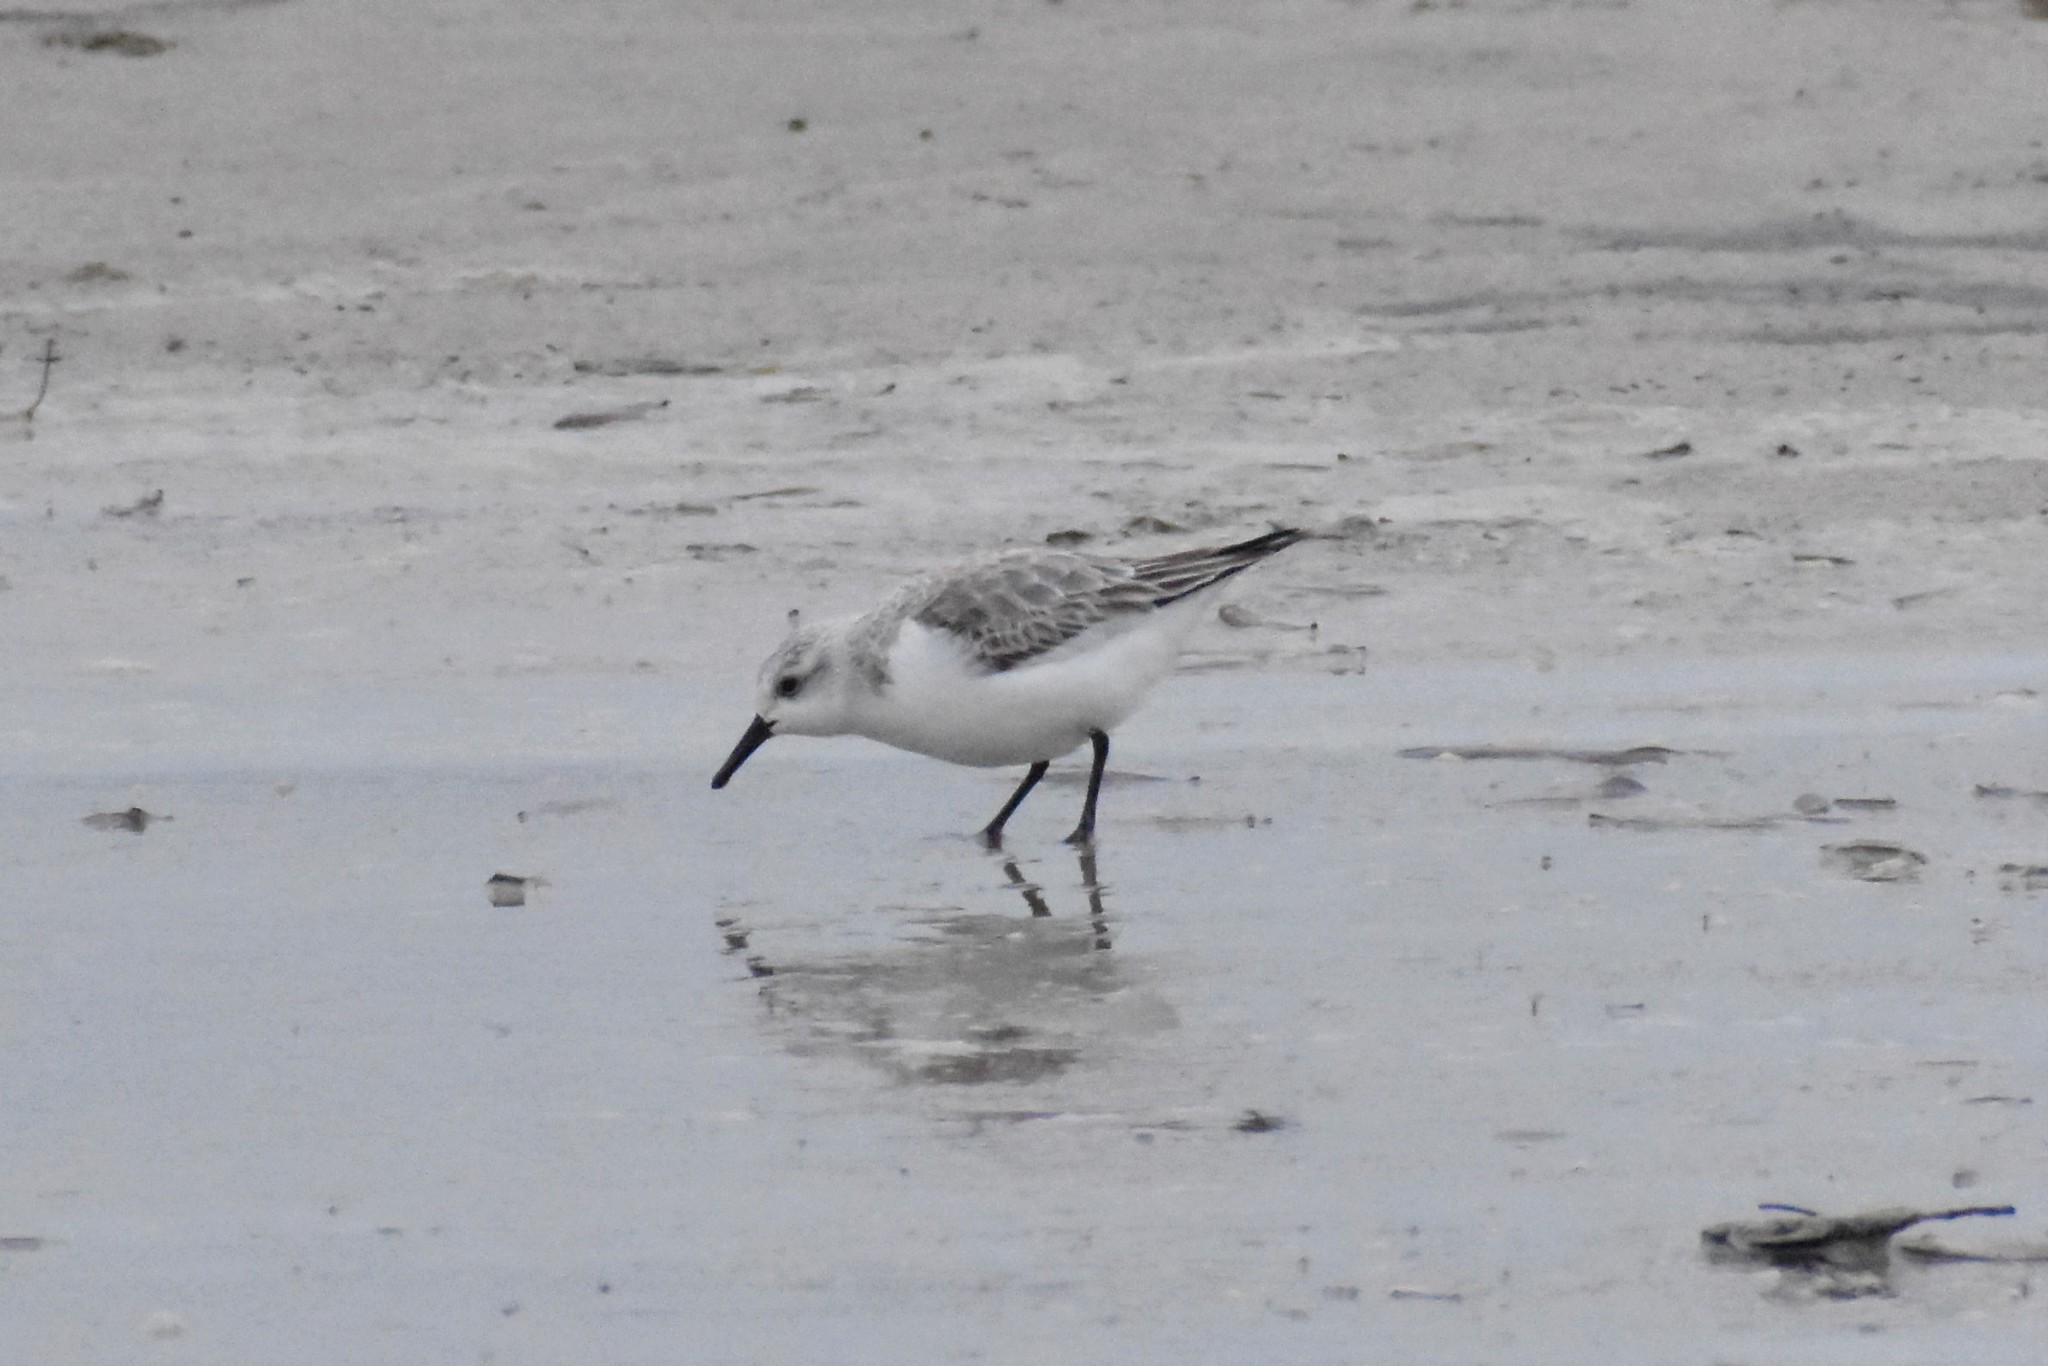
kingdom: Animalia
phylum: Chordata
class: Aves
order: Charadriiformes
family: Scolopacidae
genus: Calidris
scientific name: Calidris alba
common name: Sanderling
